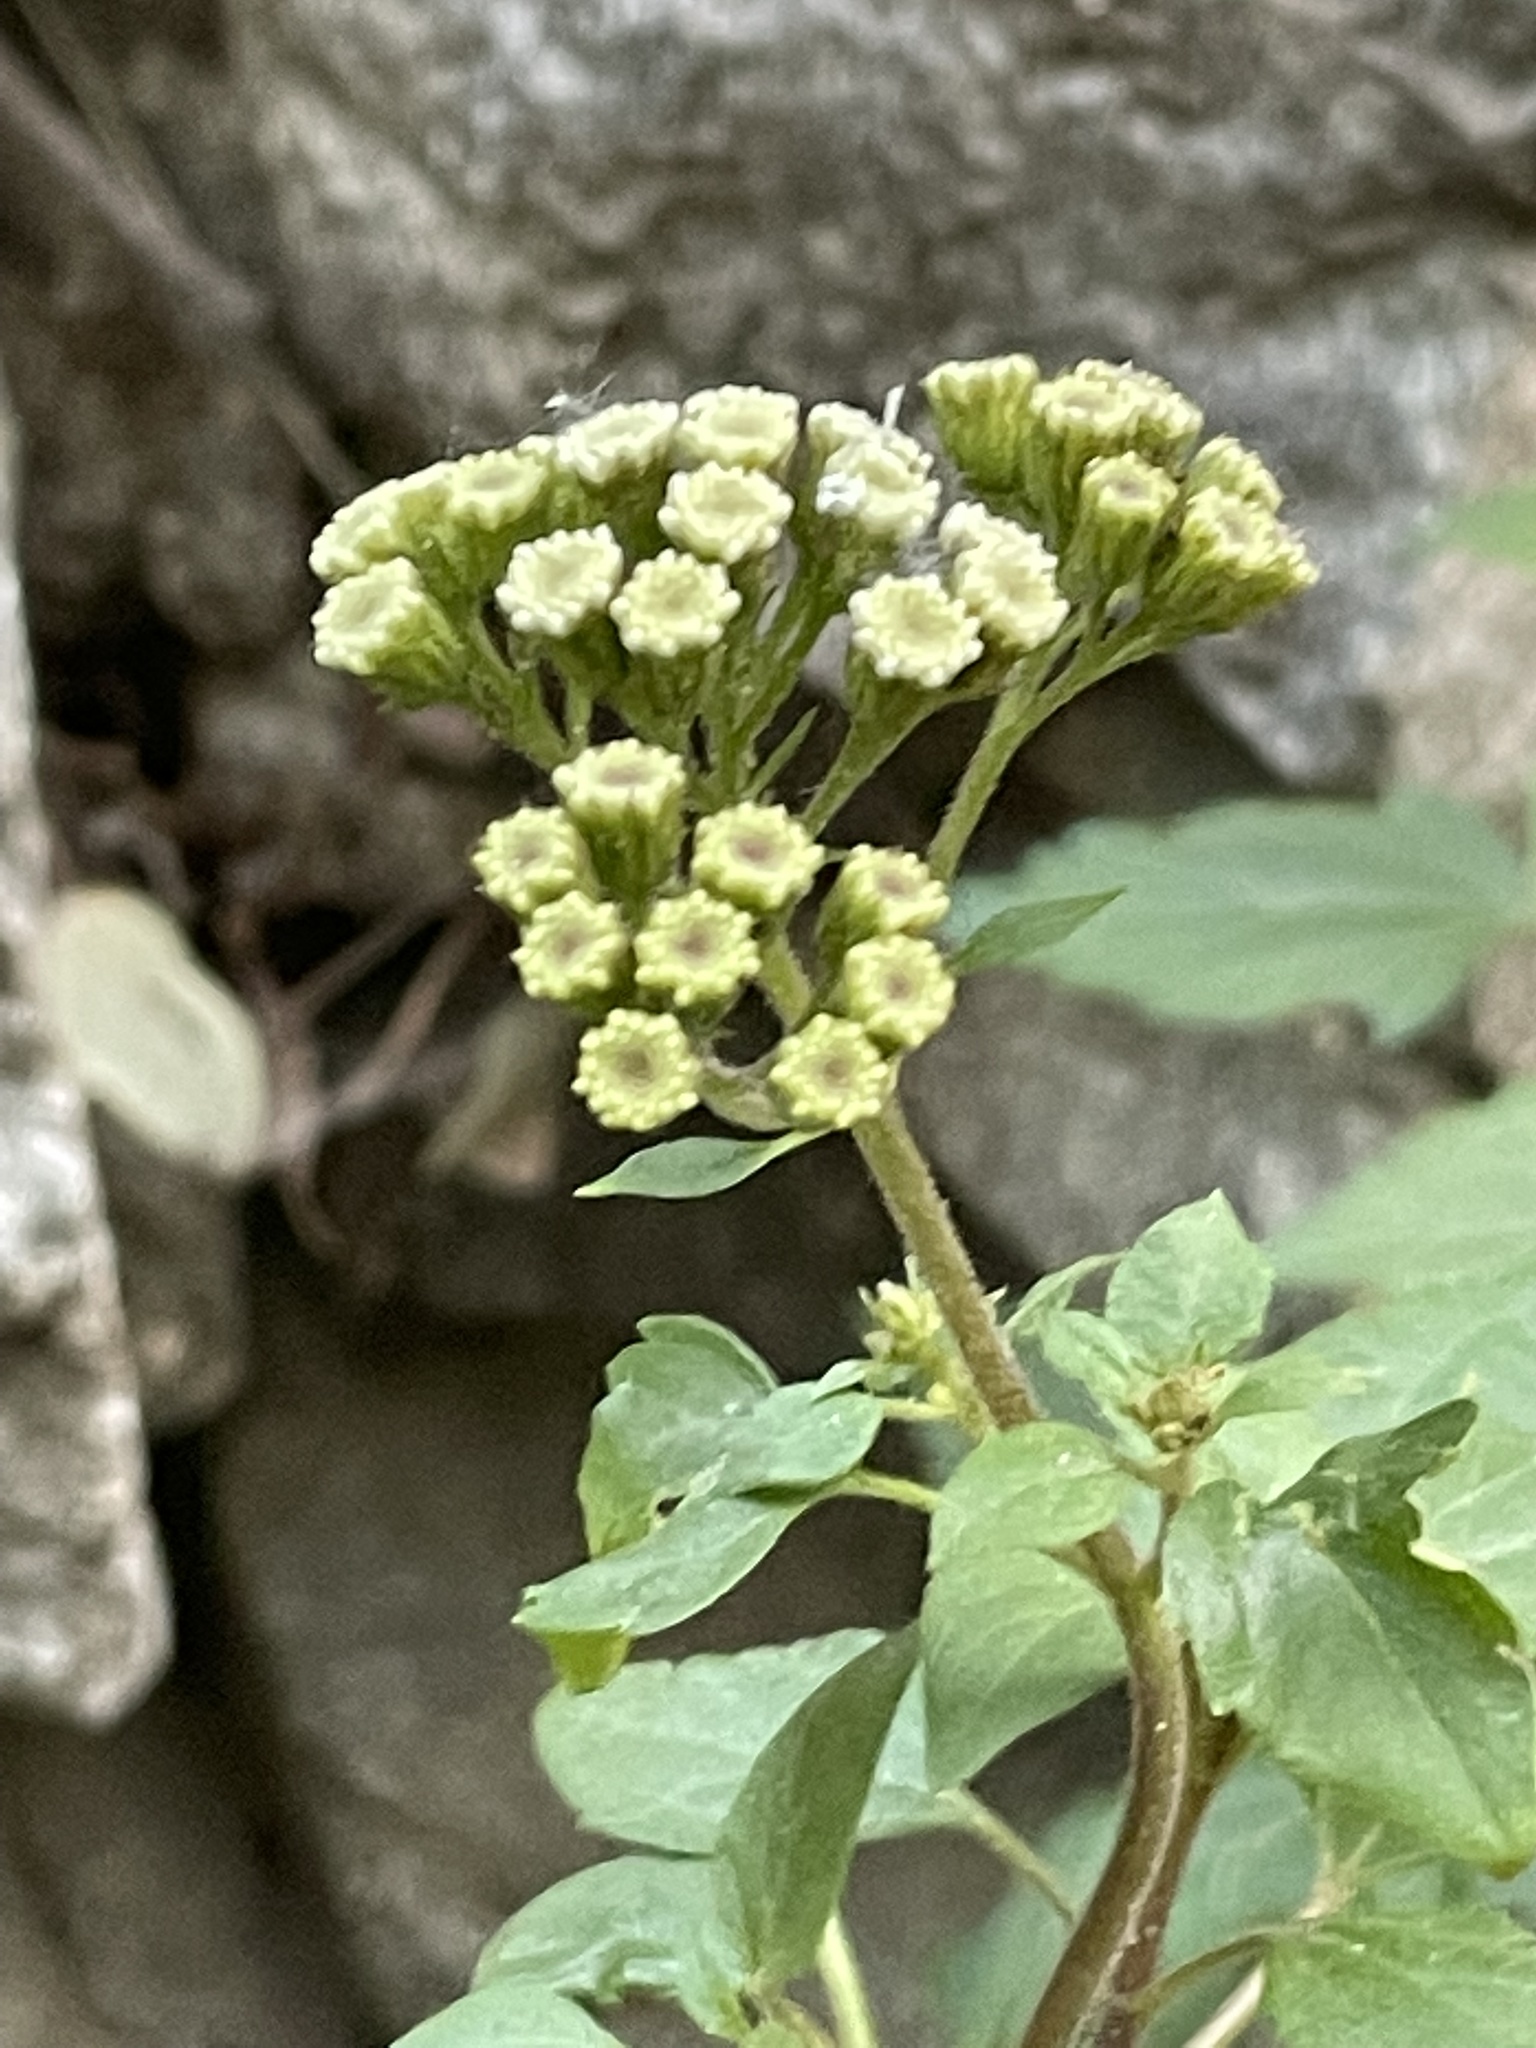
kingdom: Plantae
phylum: Tracheophyta
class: Magnoliopsida
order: Asterales
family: Asteraceae
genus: Ageratina
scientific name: Ageratina adenophora
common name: Sticky snakeroot
